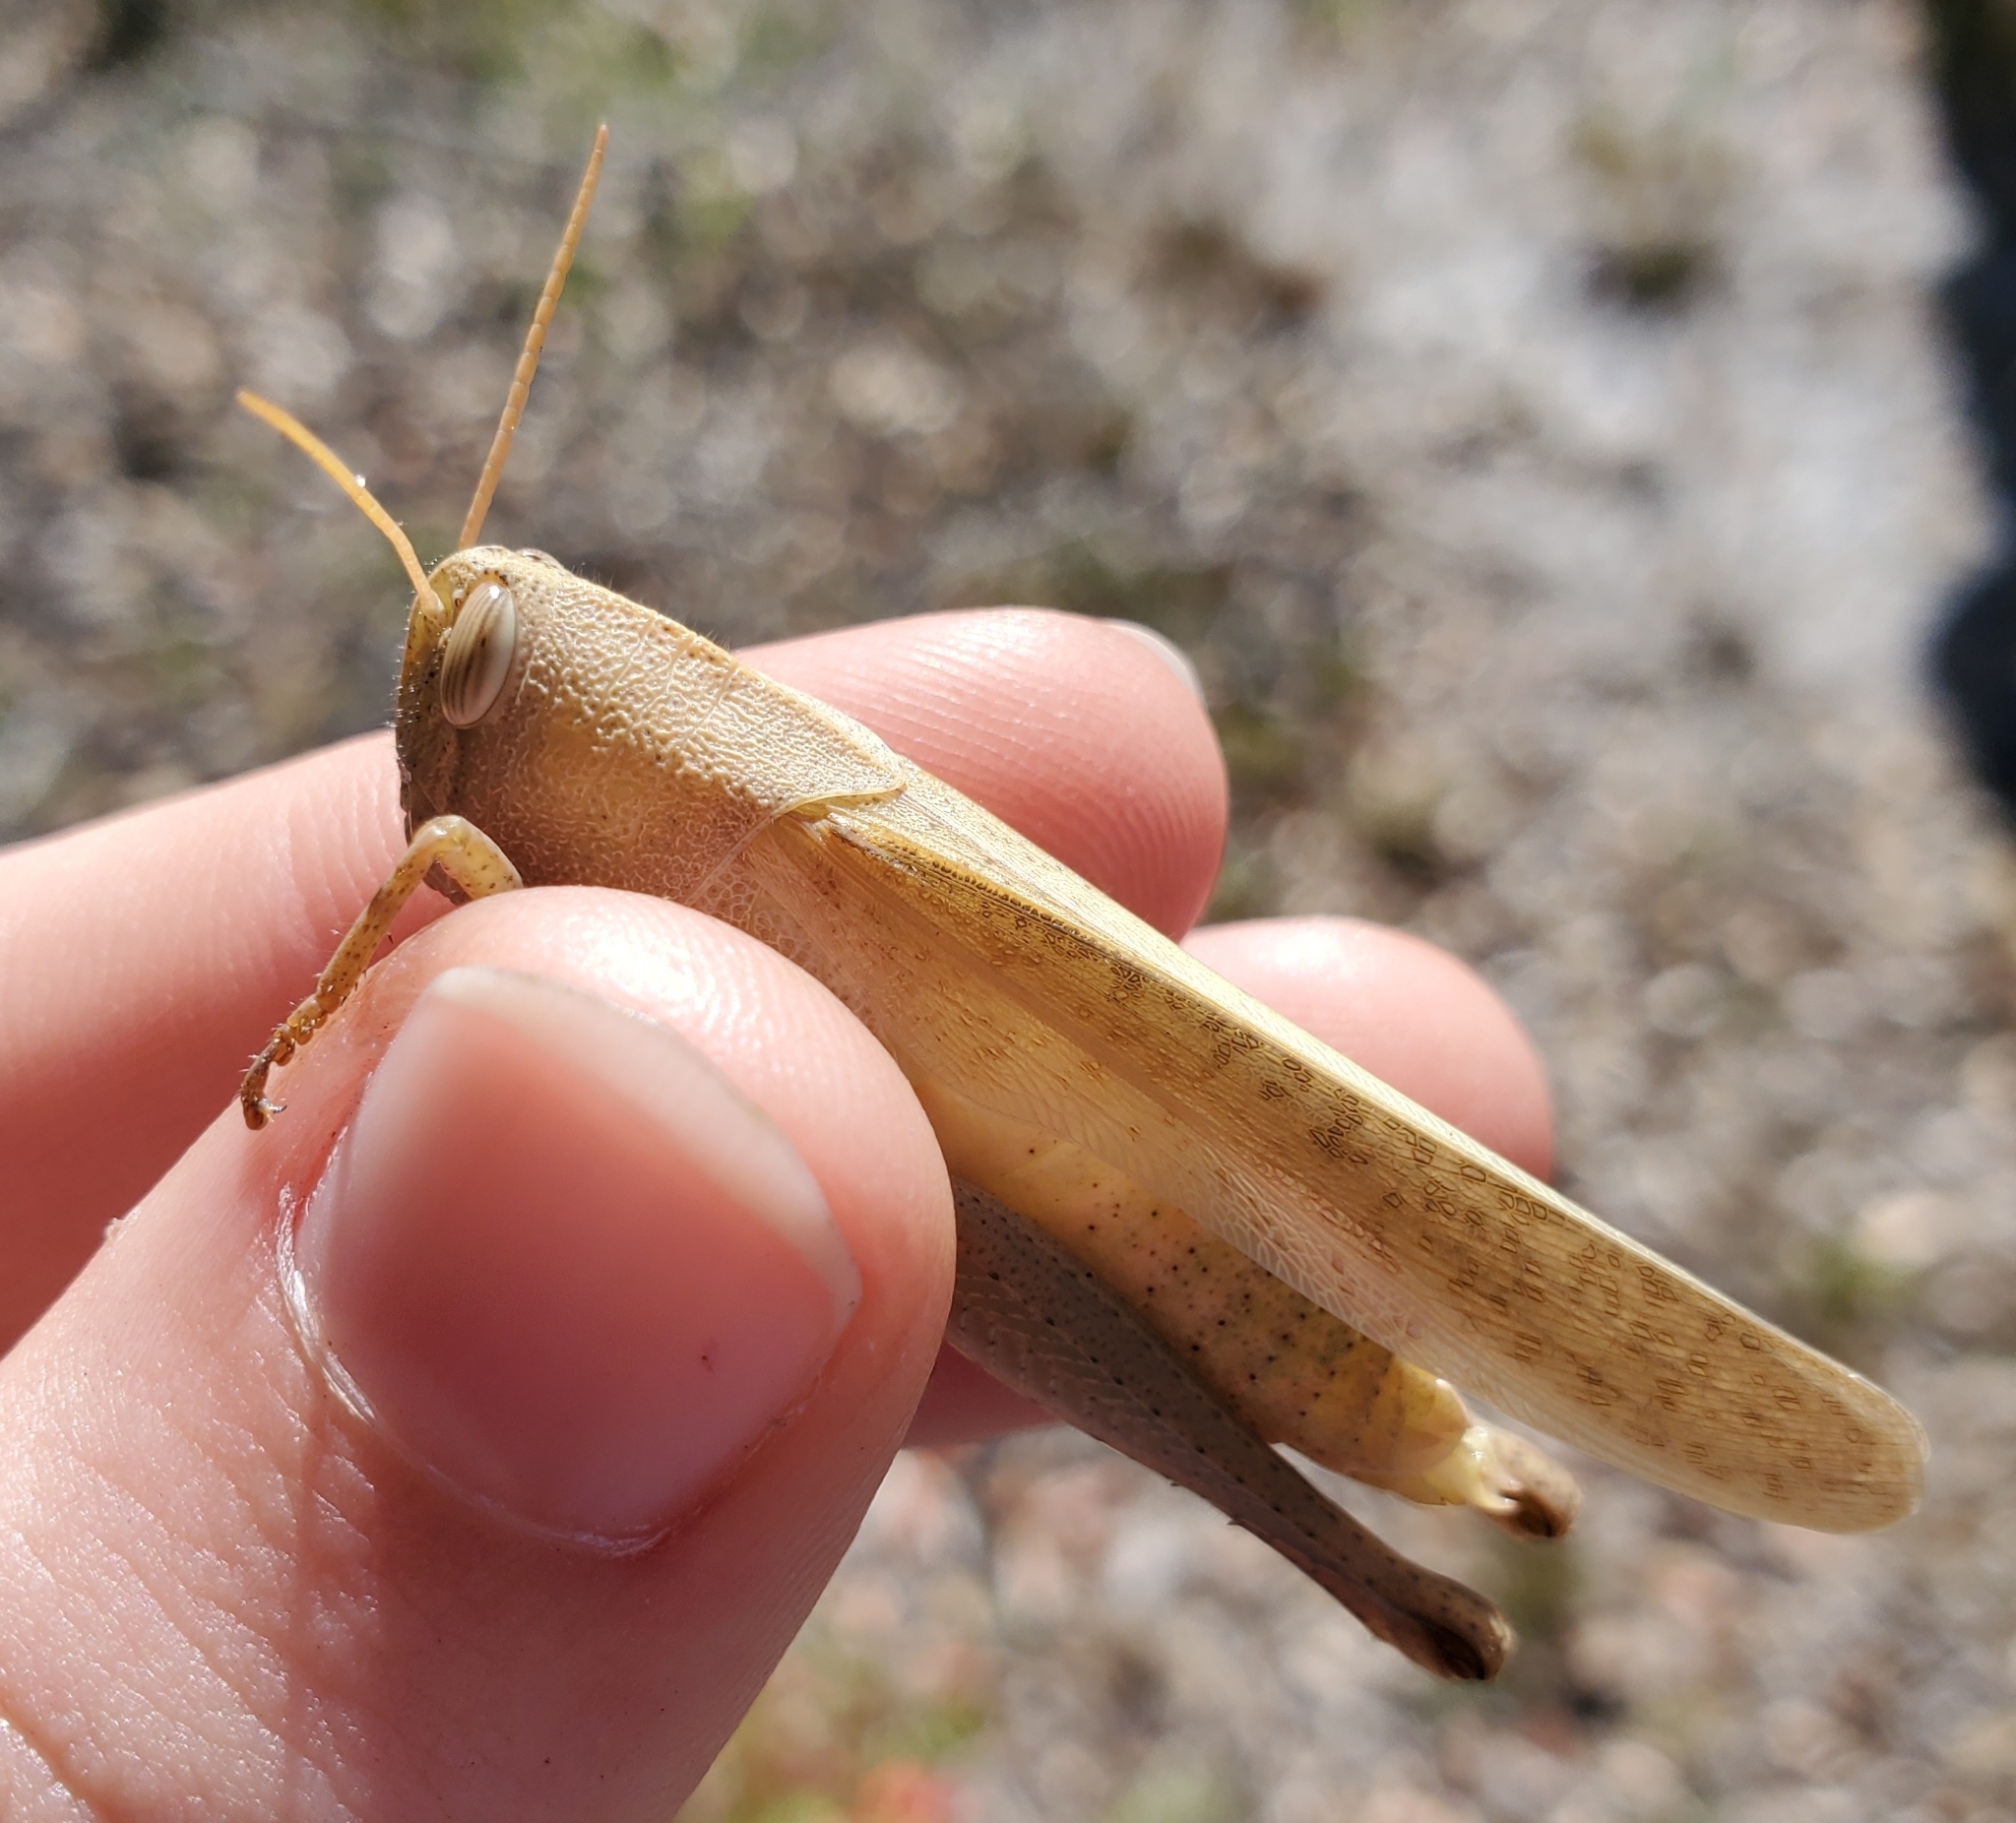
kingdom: Animalia
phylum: Arthropoda
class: Insecta
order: Orthoptera
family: Acrididae
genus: Schistocerca
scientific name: Schistocerca damnifica
